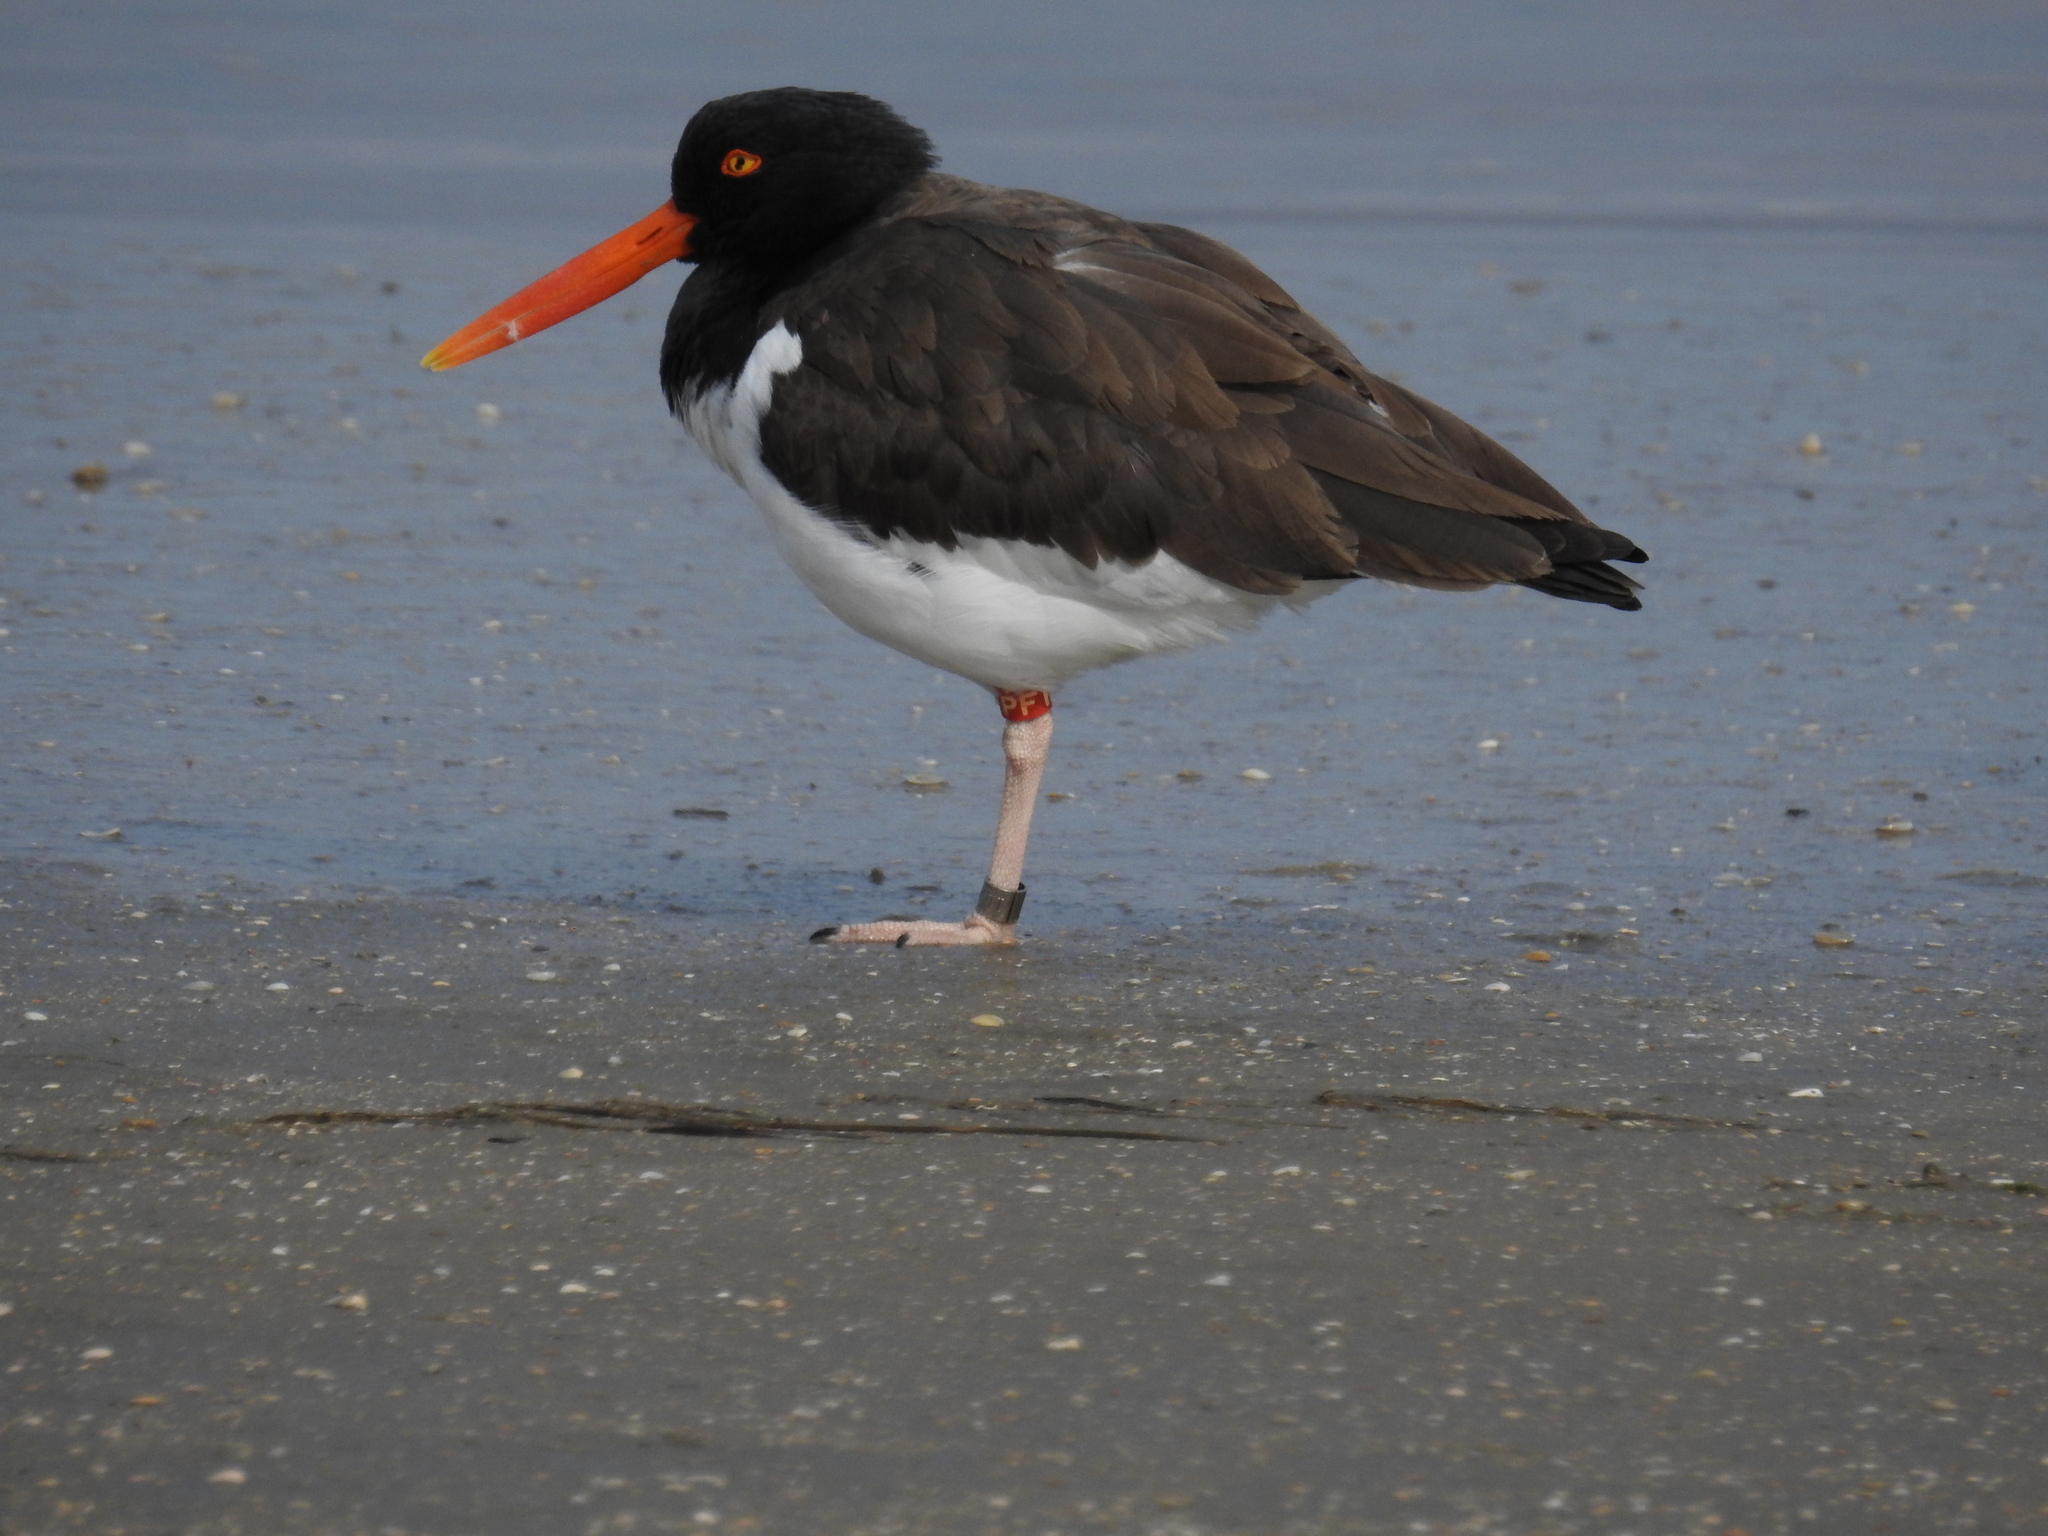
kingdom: Animalia
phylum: Chordata
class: Aves
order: Charadriiformes
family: Haematopodidae
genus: Haematopus
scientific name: Haematopus palliatus
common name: American oystercatcher
